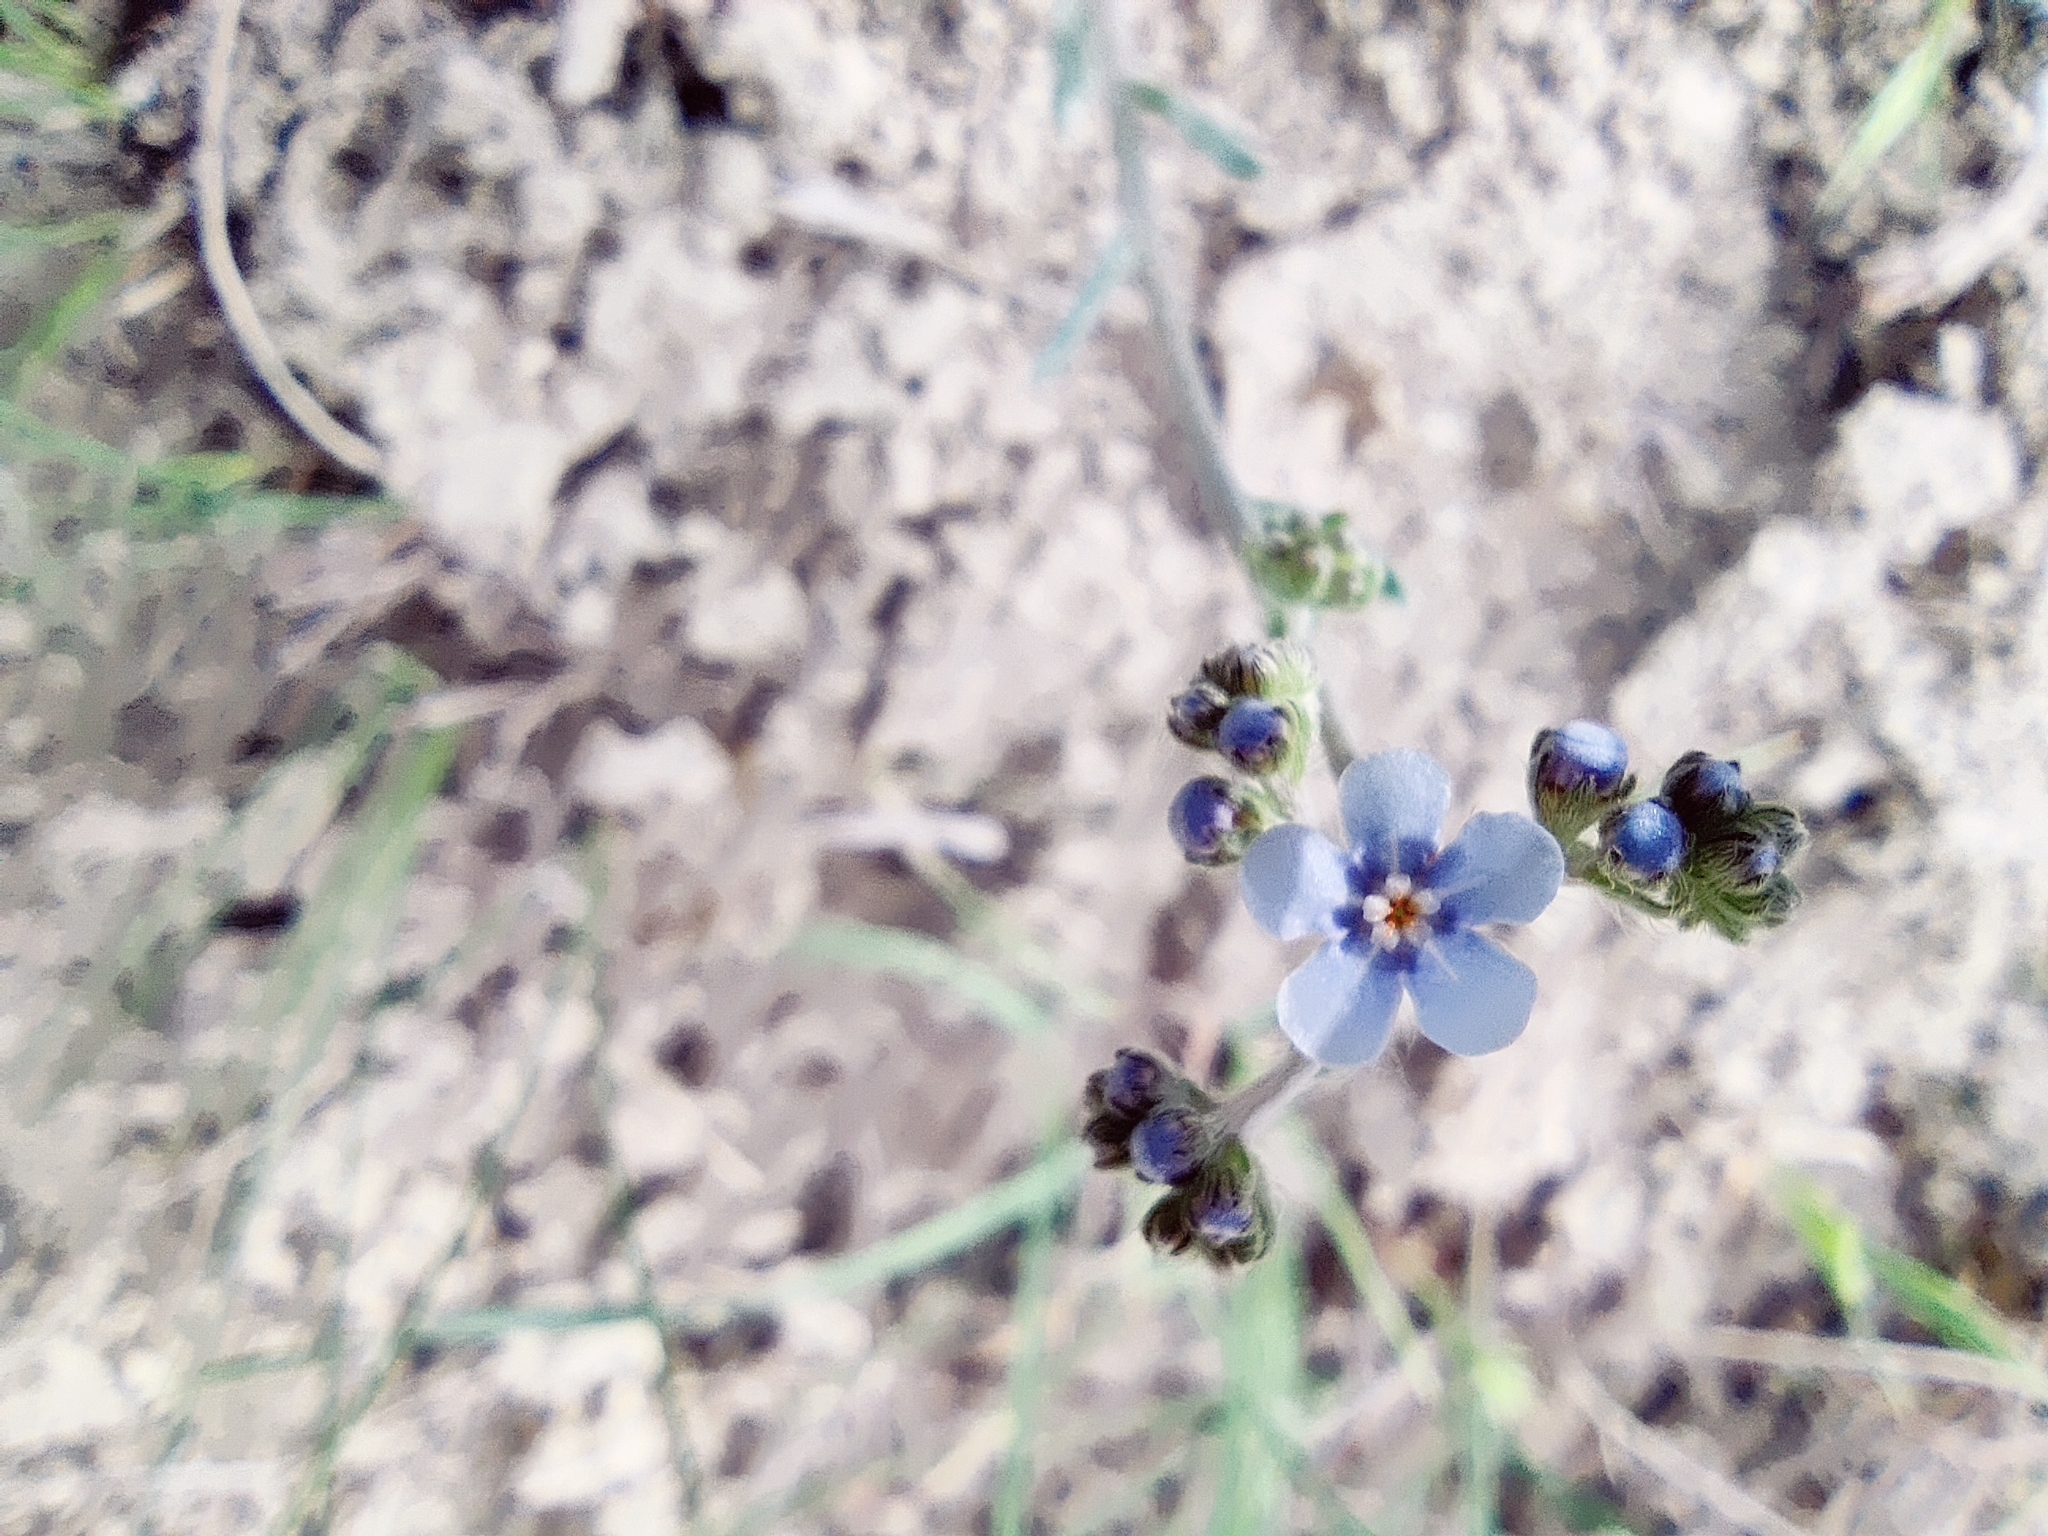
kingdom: Plantae
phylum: Tracheophyta
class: Magnoliopsida
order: Boraginales
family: Boraginaceae
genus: Lappula
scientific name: Lappula barbata
